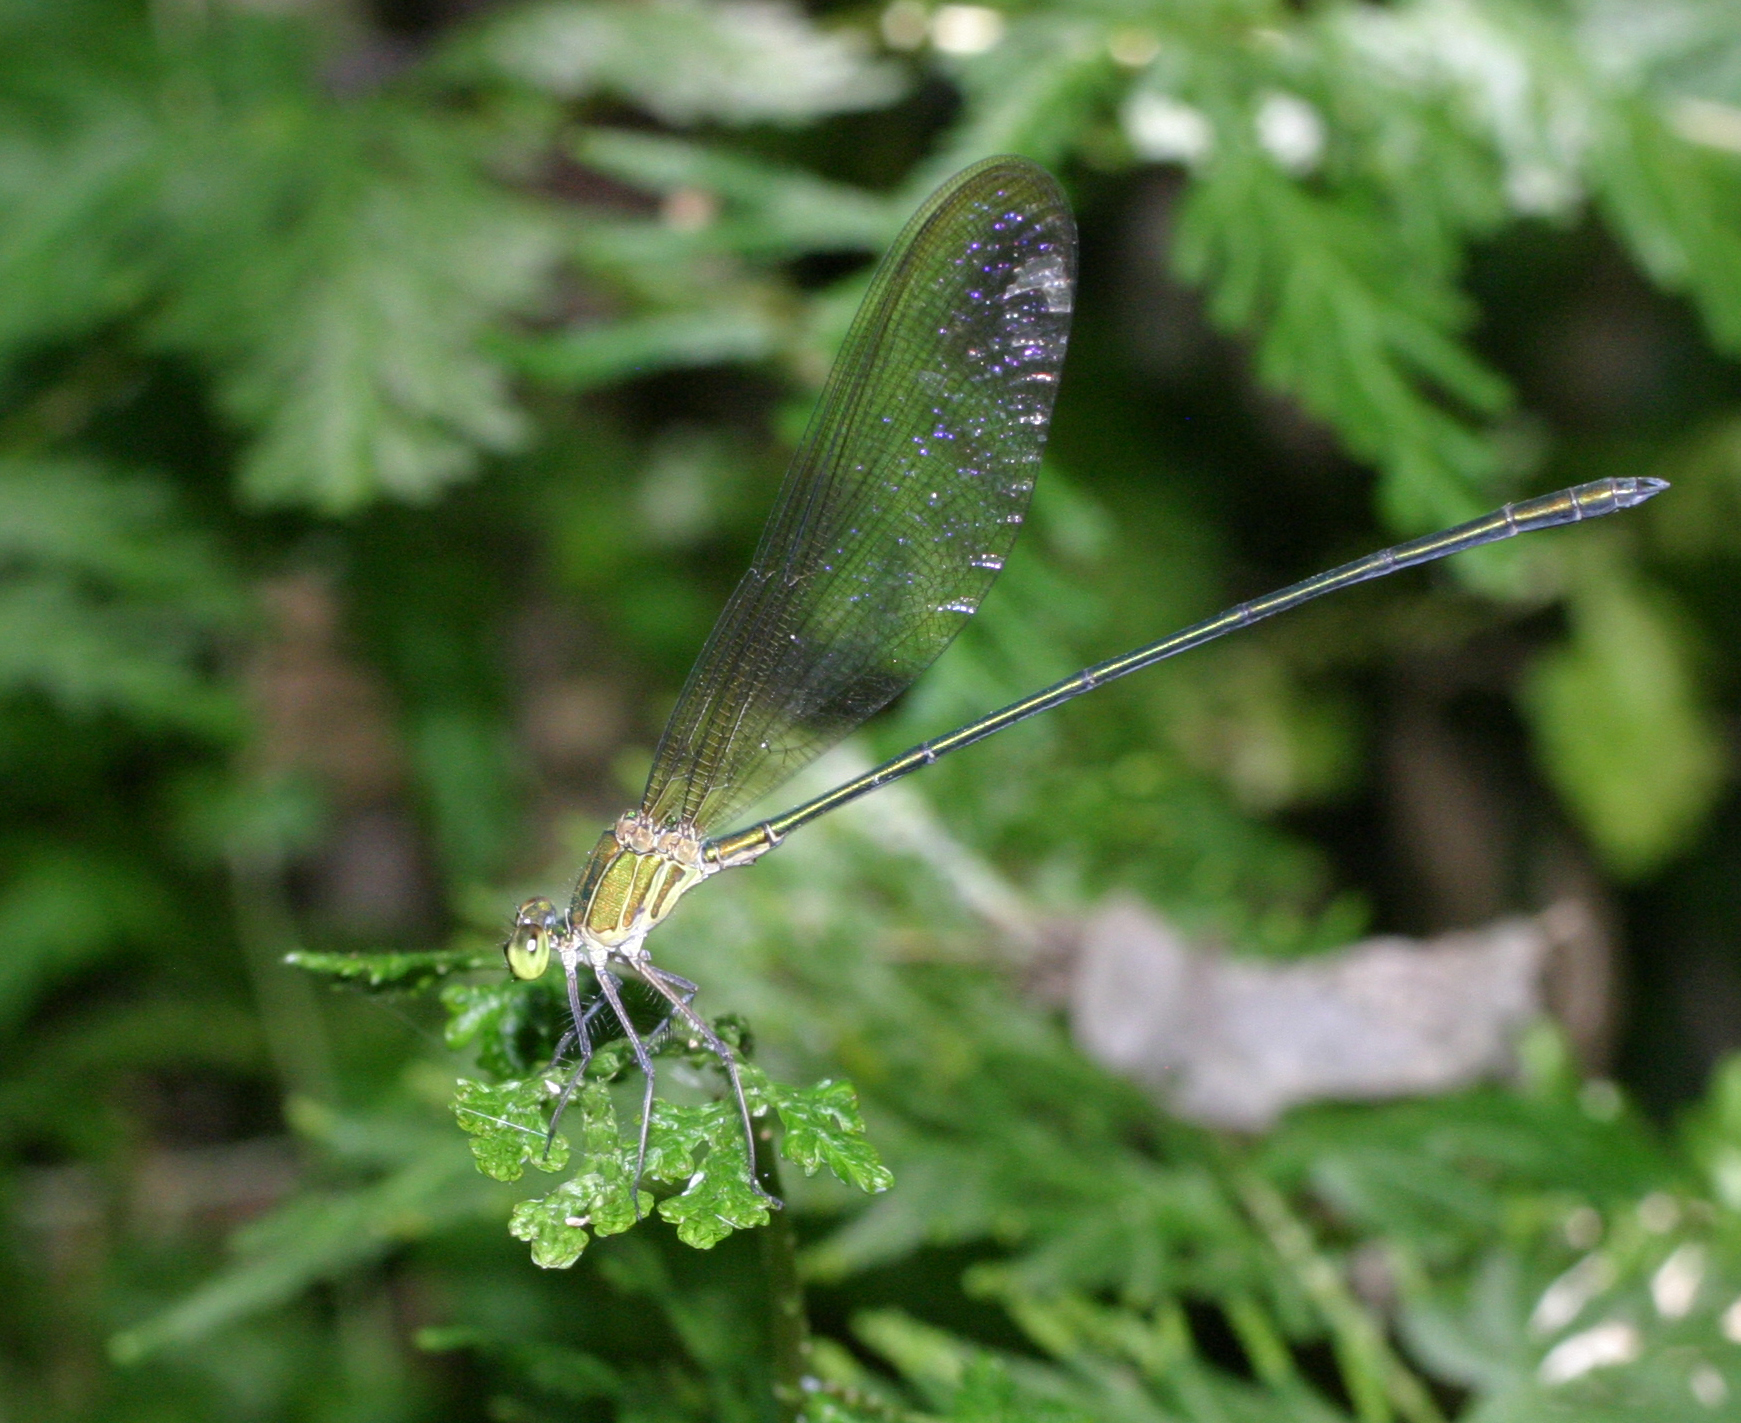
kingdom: Animalia
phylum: Arthropoda
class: Insecta
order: Odonata
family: Calopterygidae
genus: Vestalis
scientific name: Vestalis gracilis
